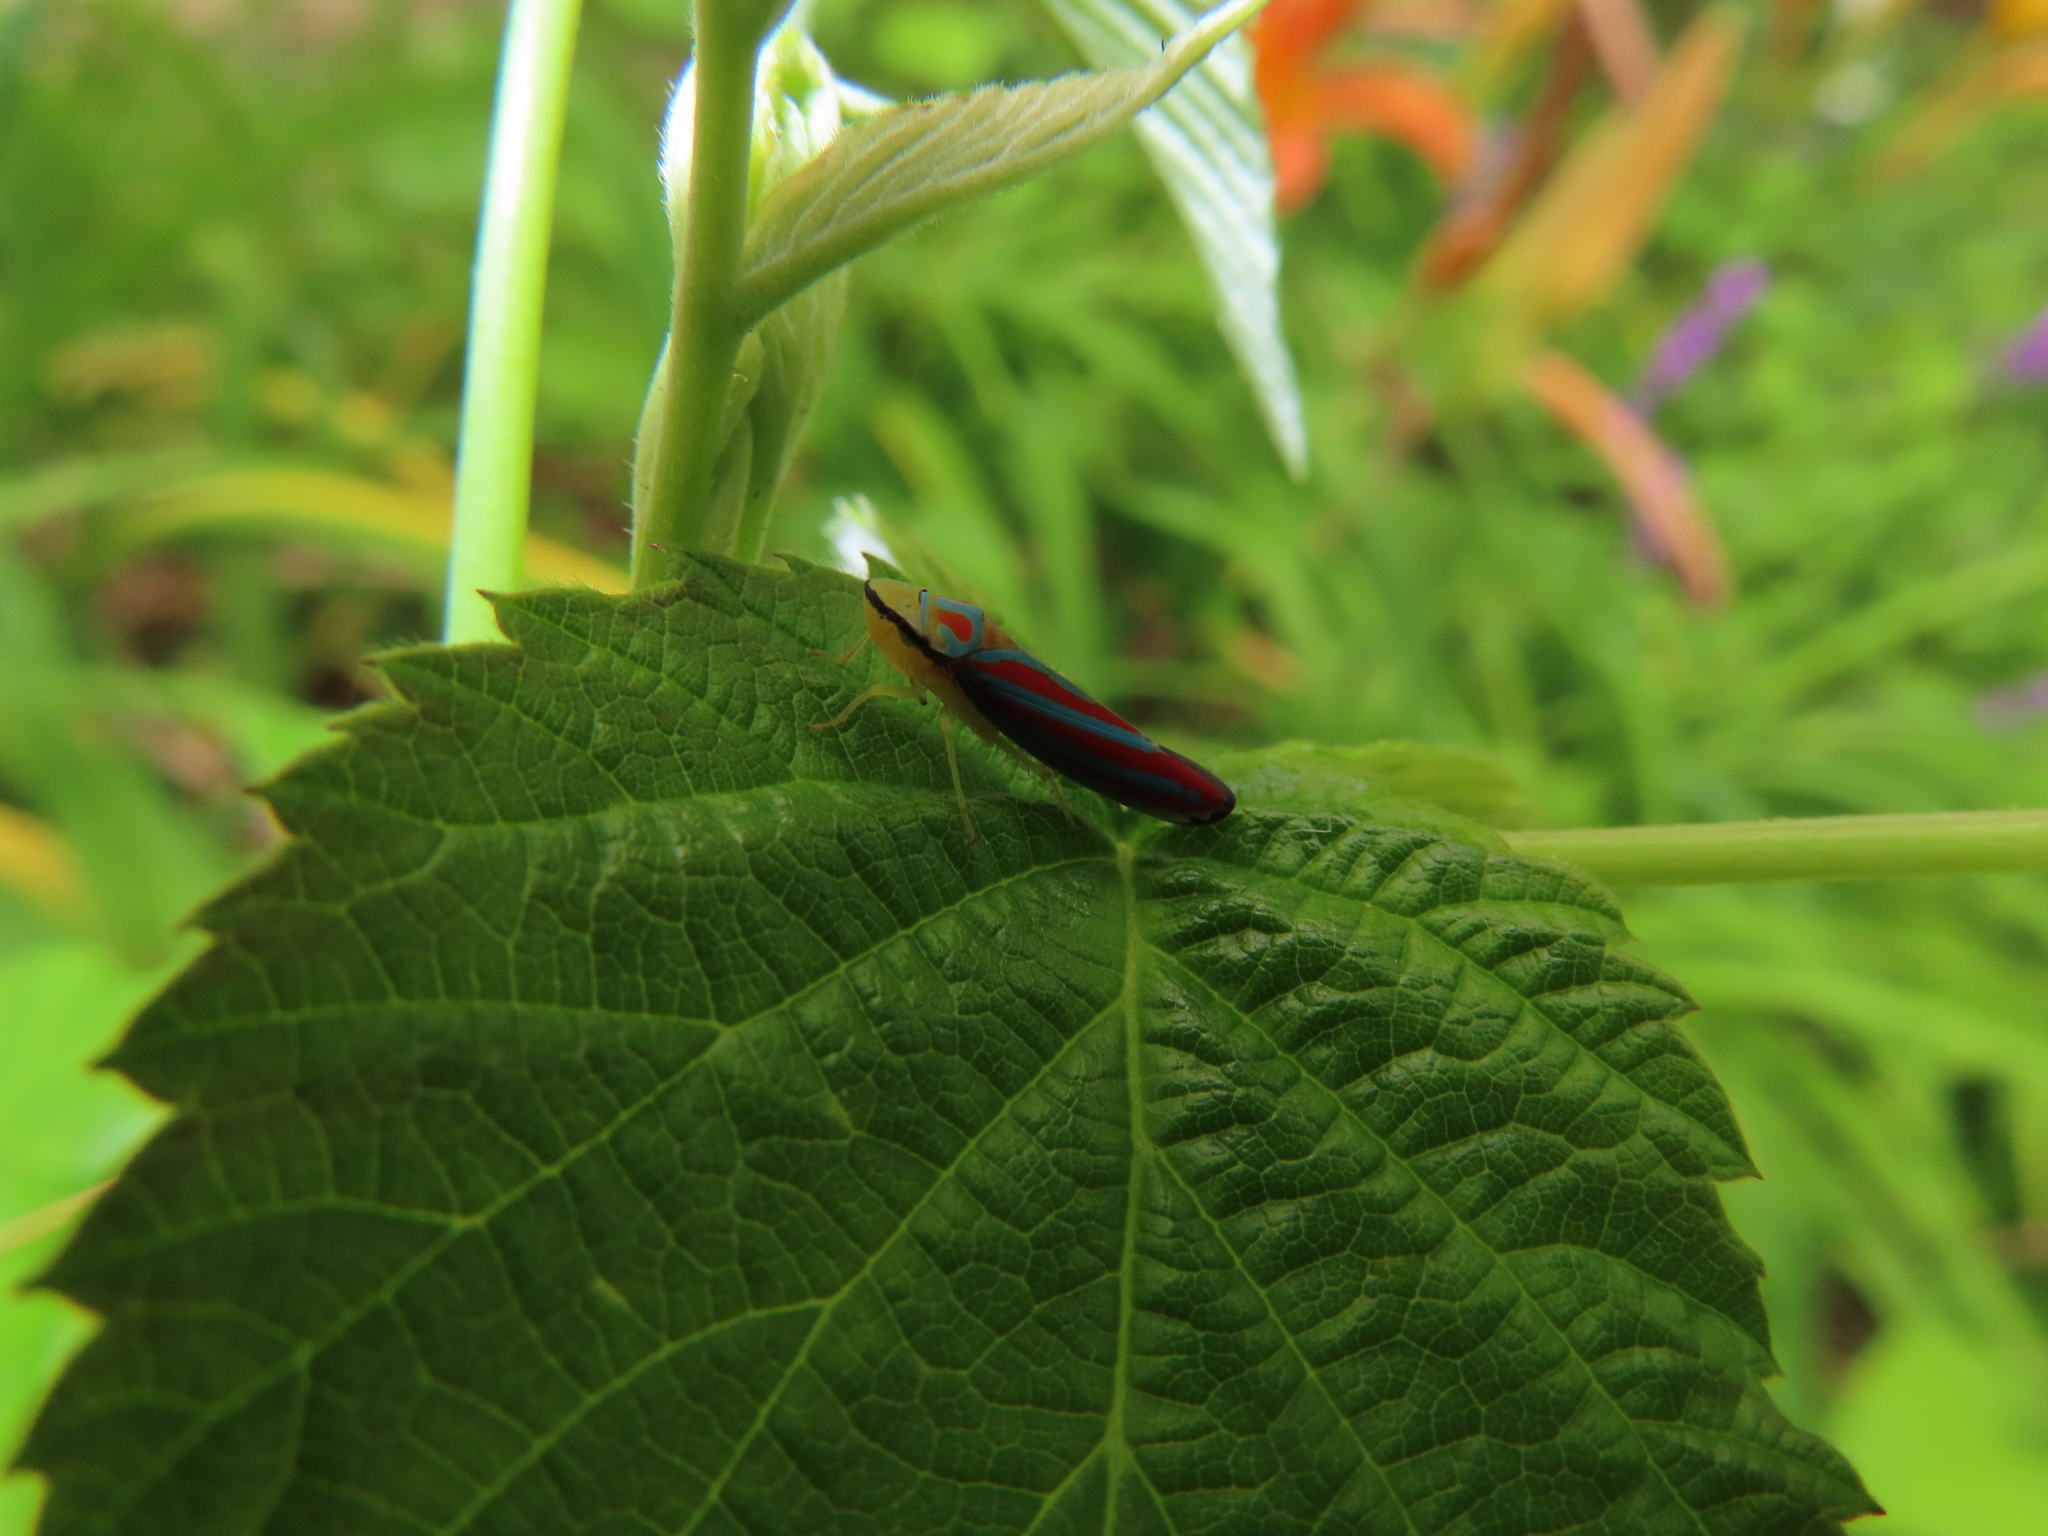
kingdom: Animalia
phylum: Arthropoda
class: Insecta
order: Hemiptera
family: Cicadellidae
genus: Graphocephala
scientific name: Graphocephala coccinea
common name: Candy-striped leafhopper
